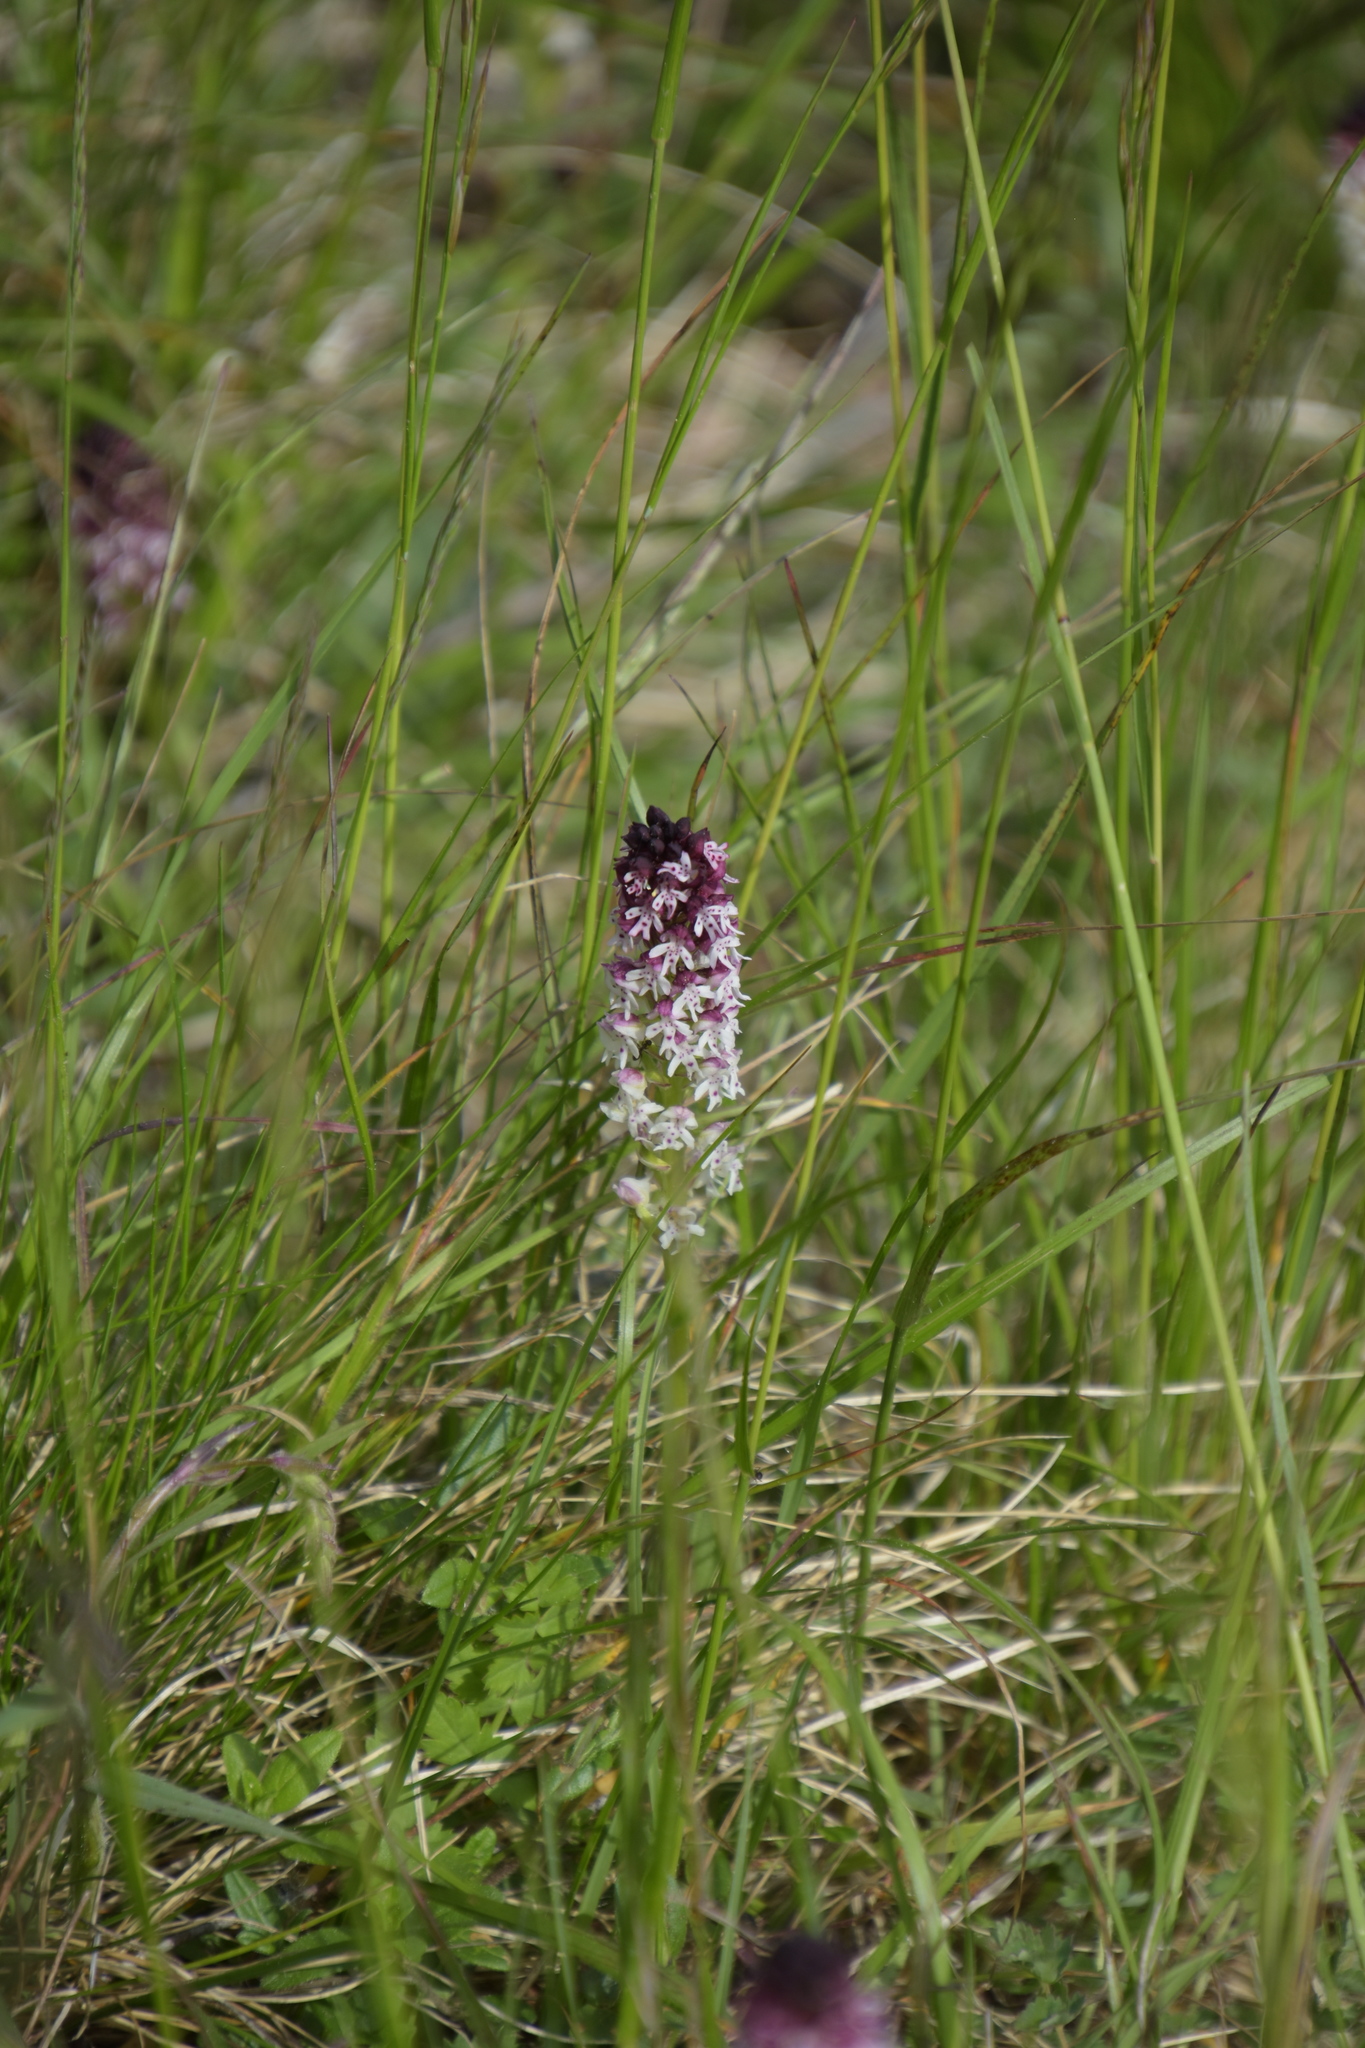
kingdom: Plantae
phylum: Tracheophyta
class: Liliopsida
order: Asparagales
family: Orchidaceae
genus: Neotinea
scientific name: Neotinea ustulata
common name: Burnt orchid
